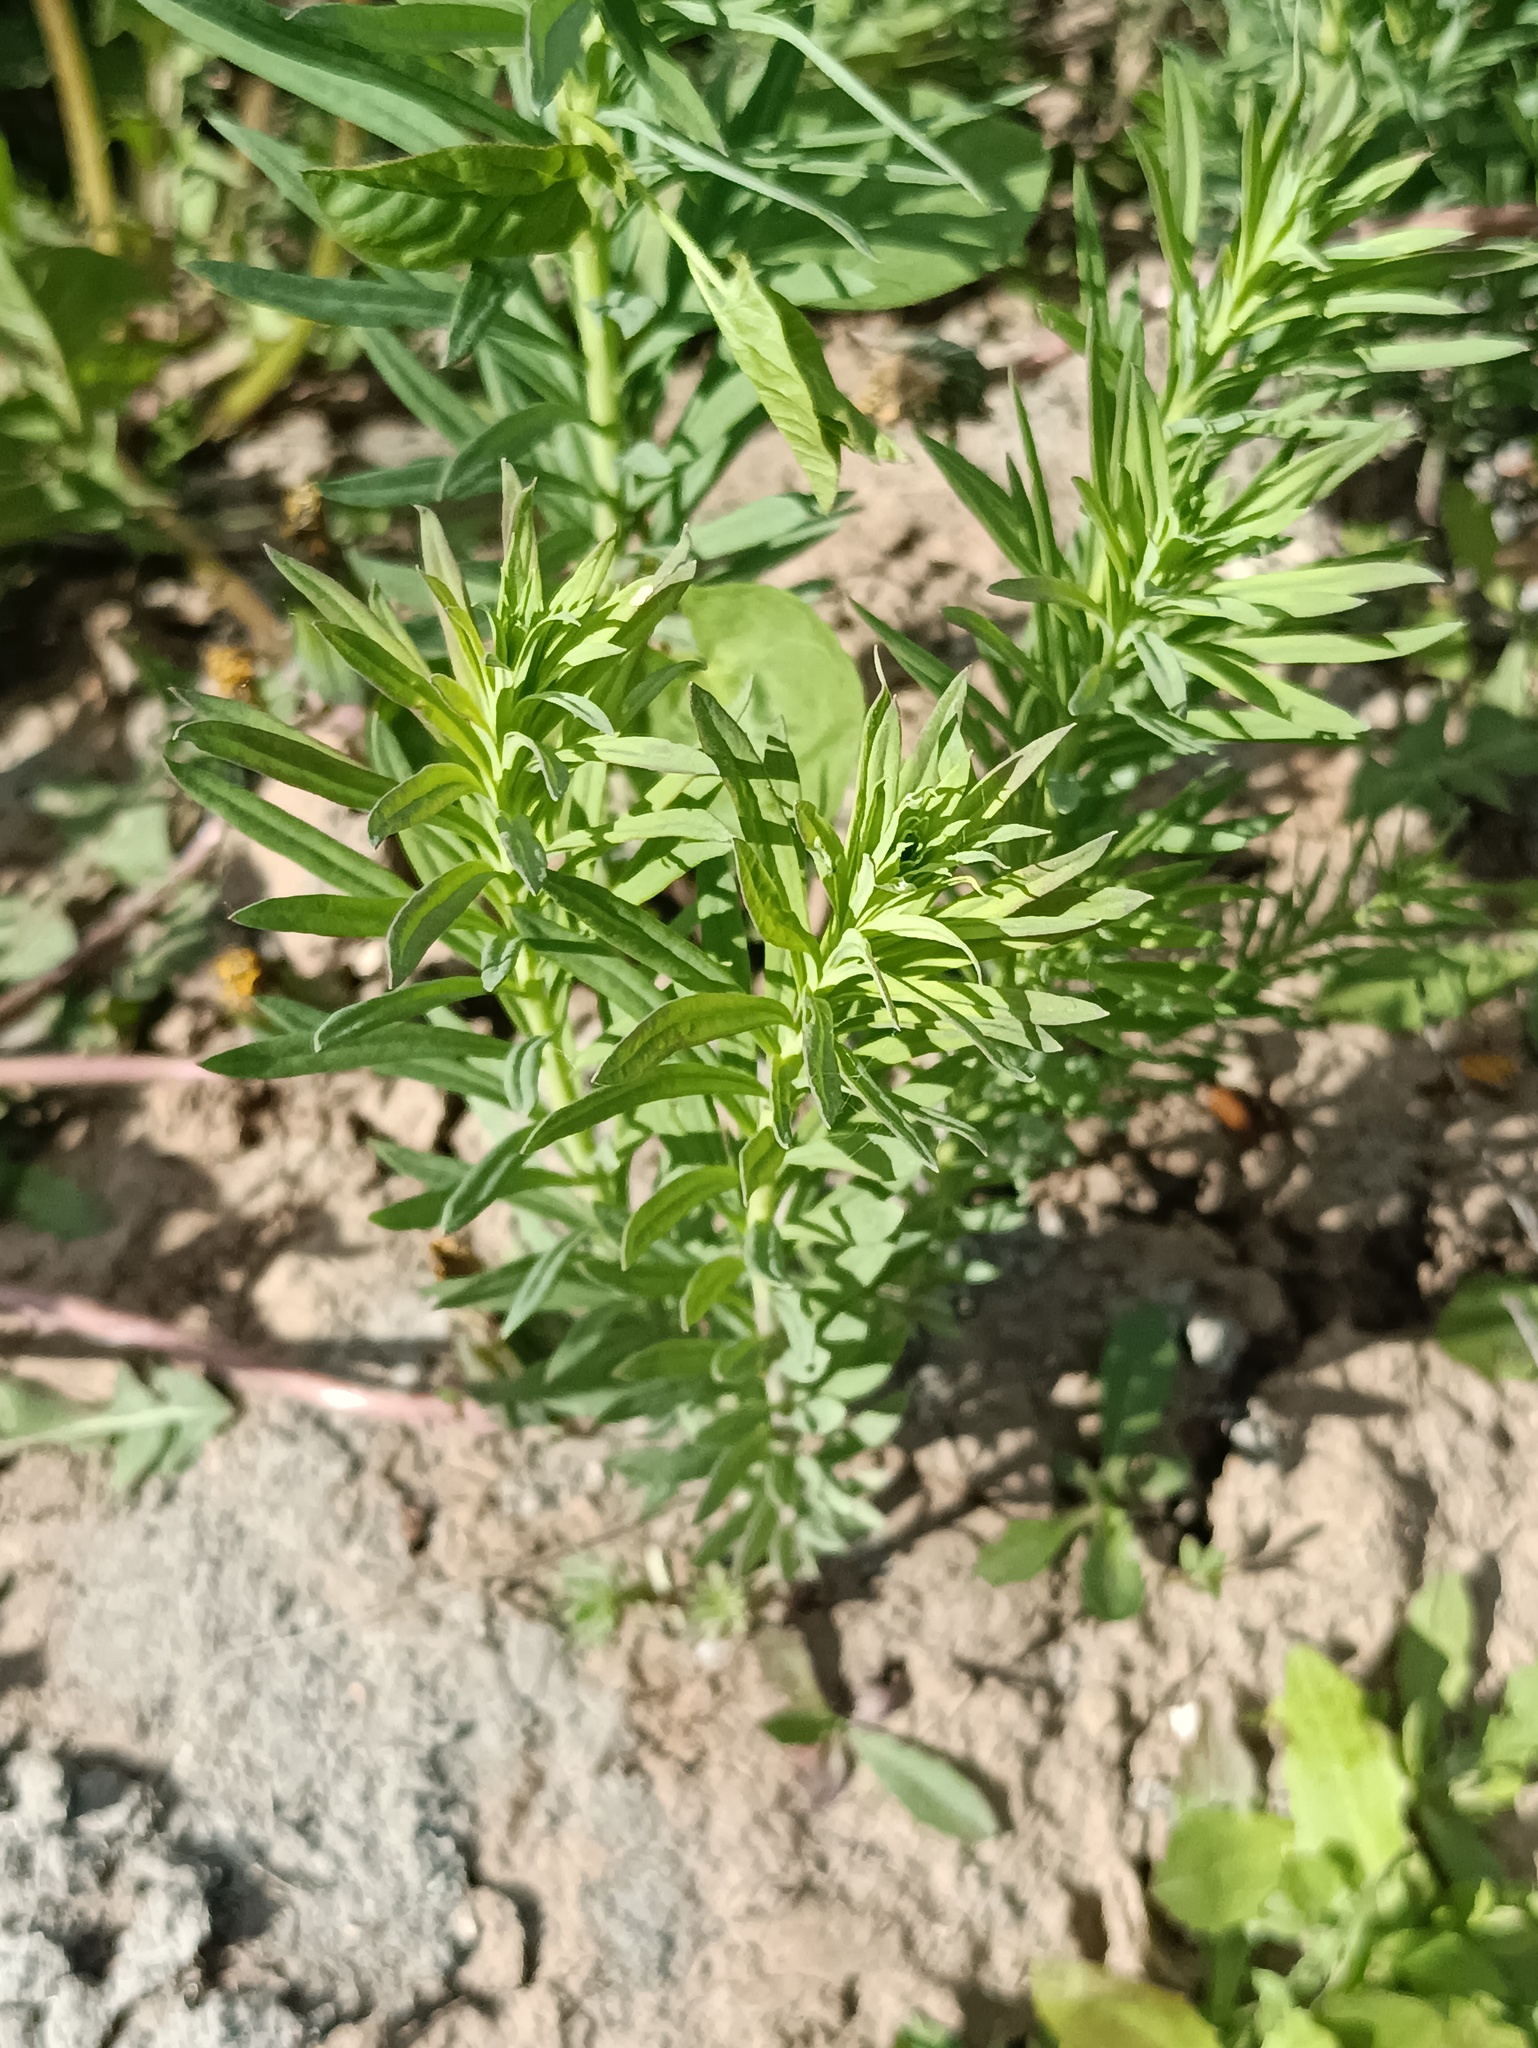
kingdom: Plantae
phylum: Tracheophyta
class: Magnoliopsida
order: Lamiales
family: Plantaginaceae
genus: Linaria
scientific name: Linaria vulgaris
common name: Butter and eggs
